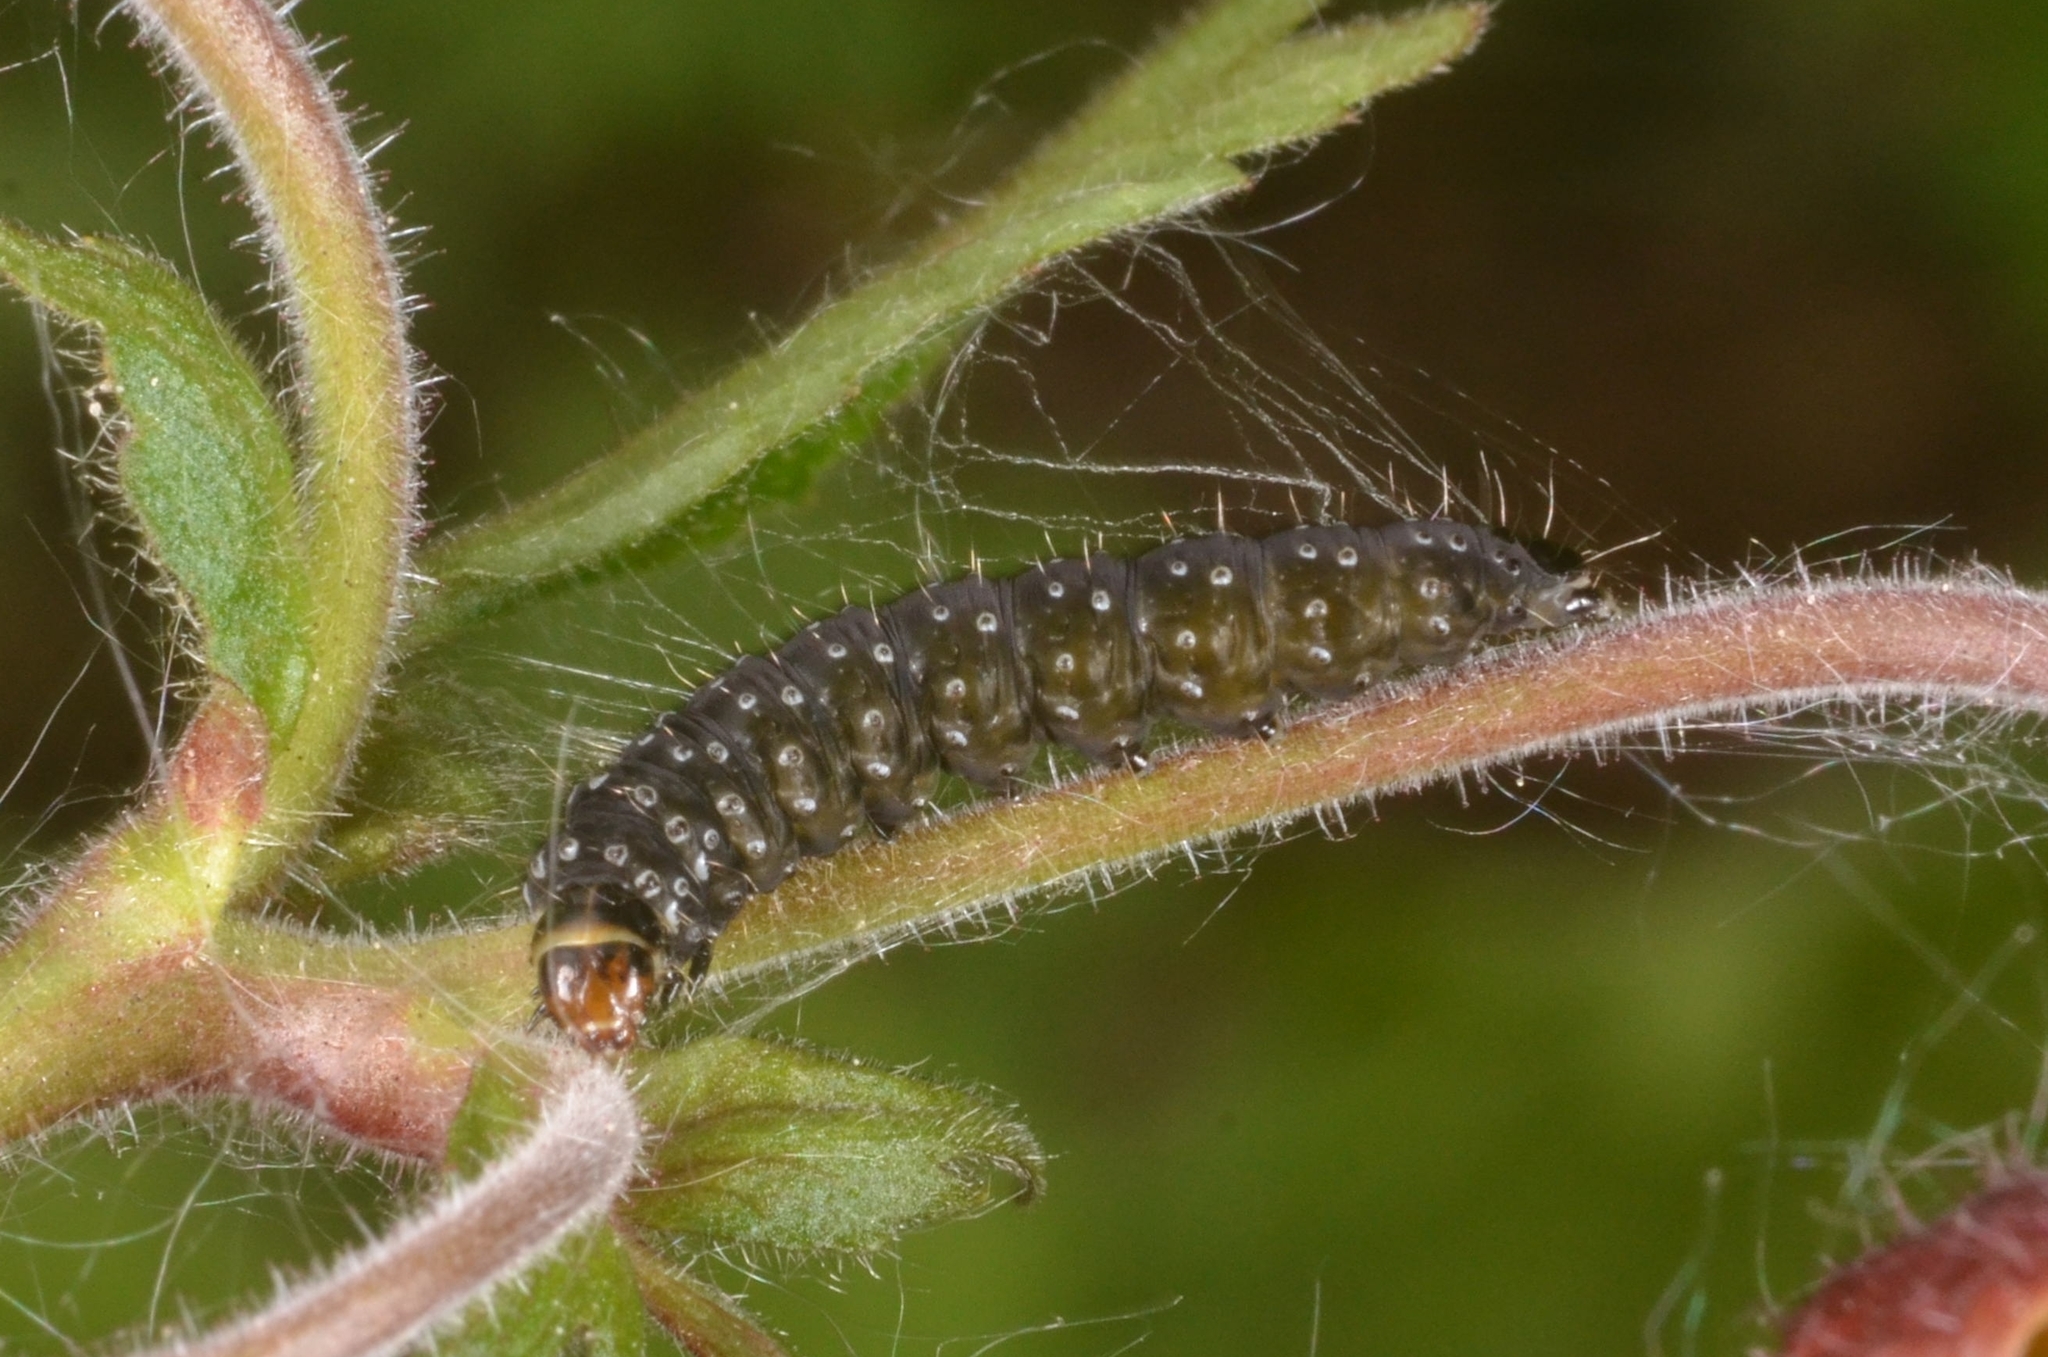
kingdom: Animalia
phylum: Arthropoda
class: Insecta
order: Lepidoptera
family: Tortricidae
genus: Aphelia
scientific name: Aphelia Zelotherses paleana
